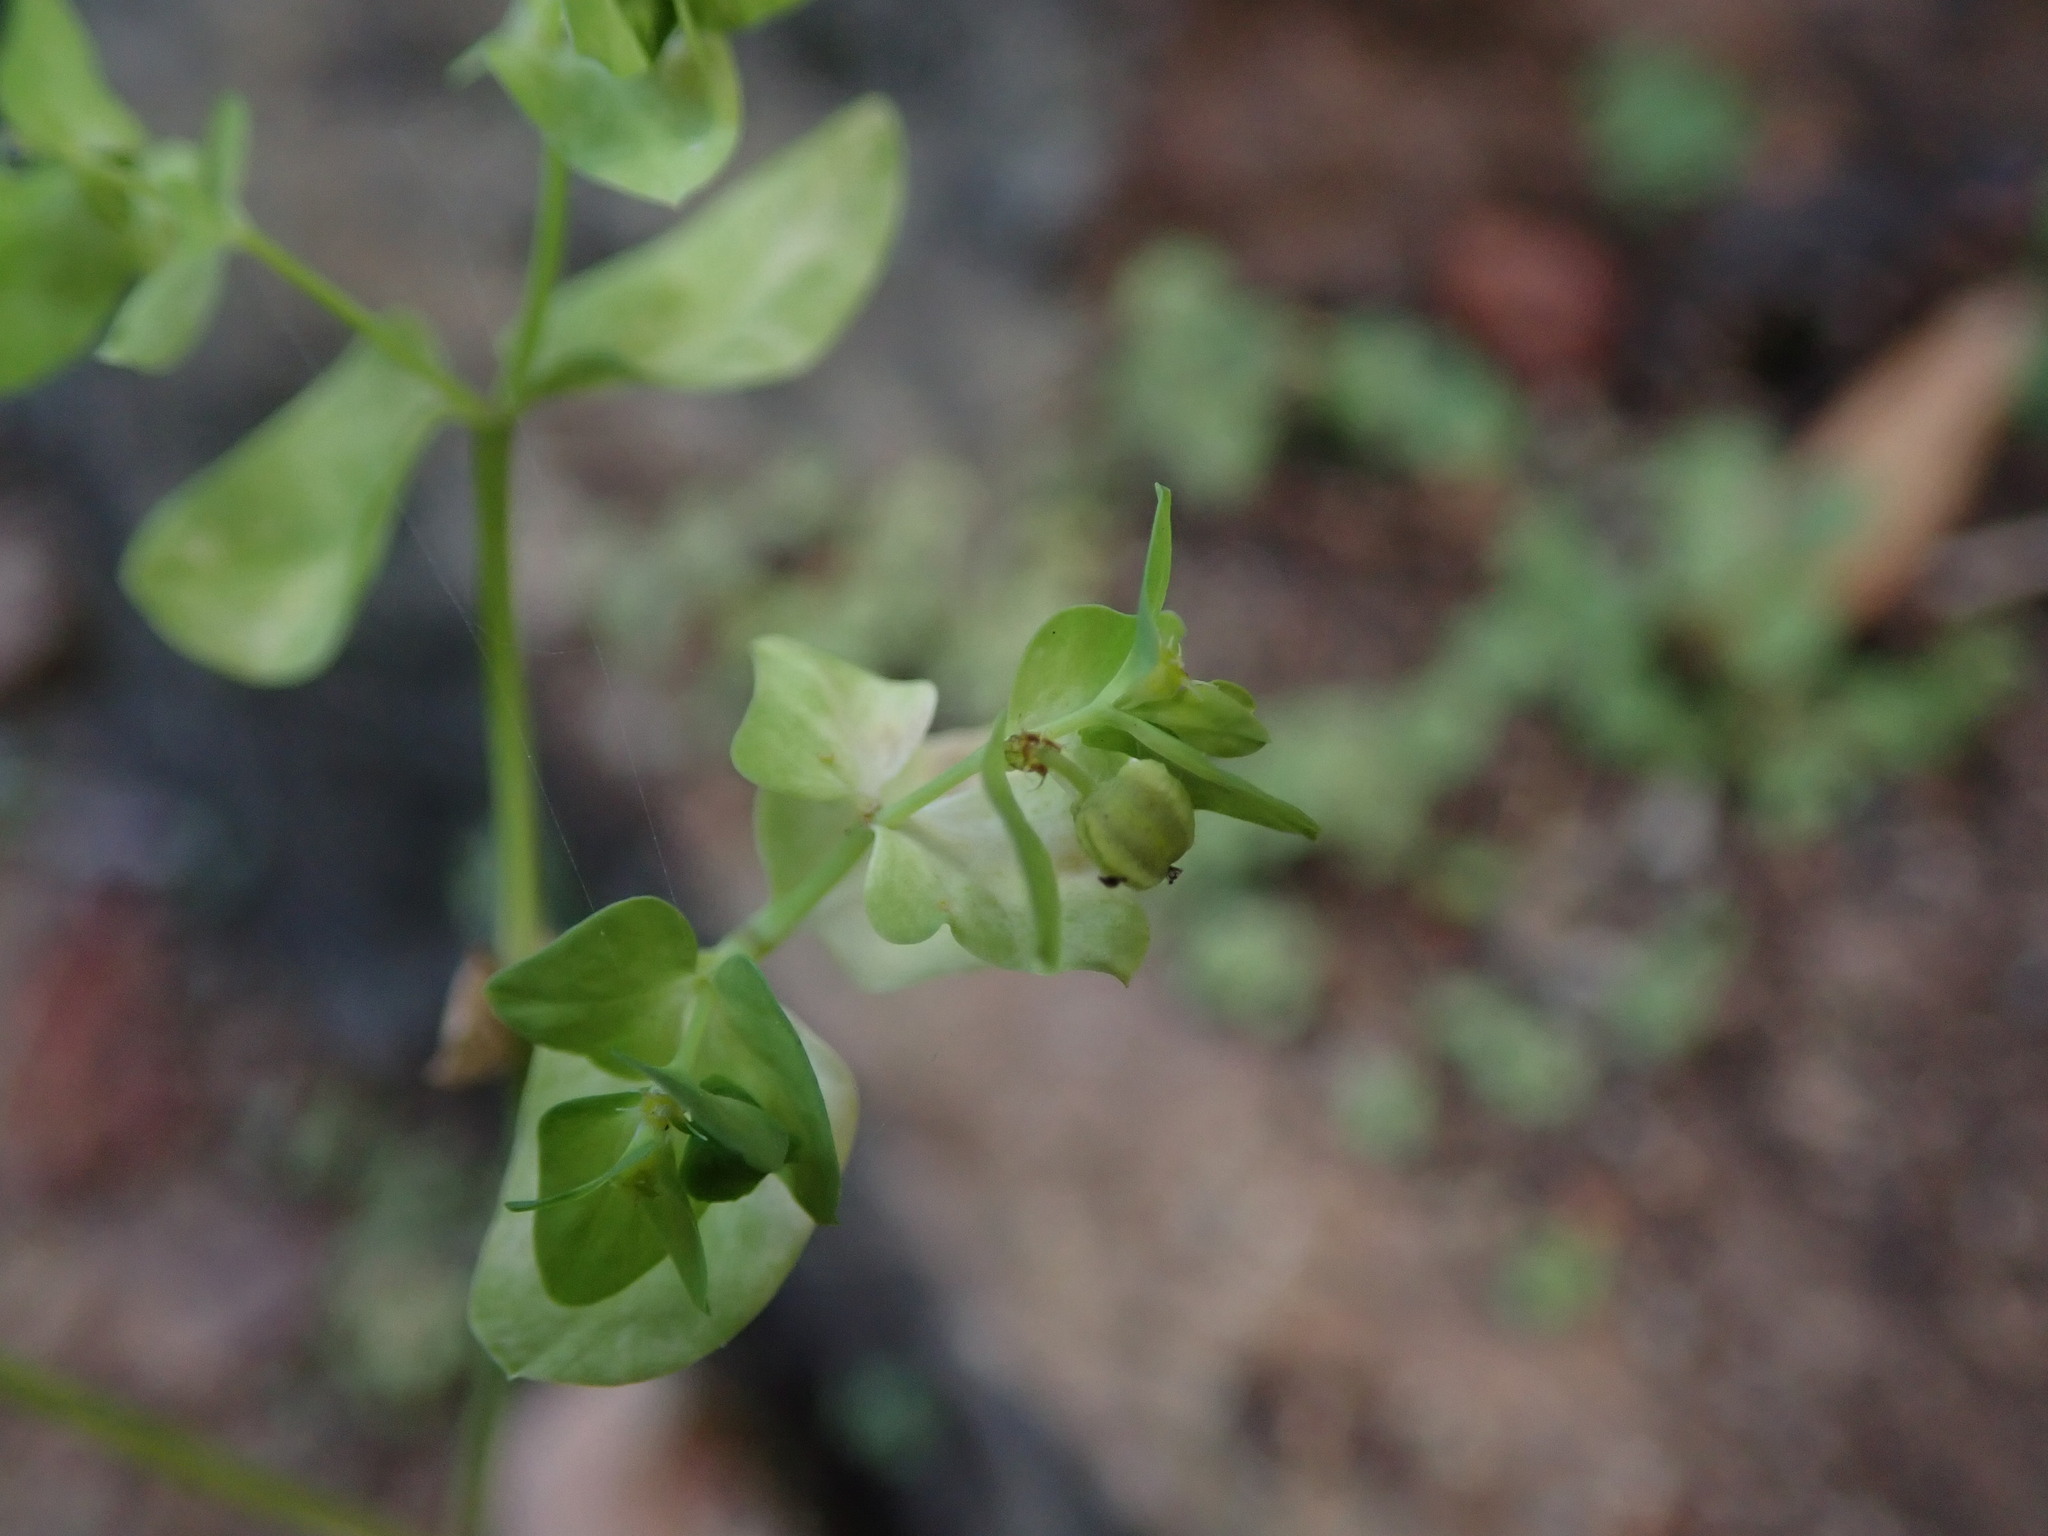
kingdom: Plantae
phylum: Tracheophyta
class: Magnoliopsida
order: Malpighiales
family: Euphorbiaceae
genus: Euphorbia
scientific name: Euphorbia peplus
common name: Petty spurge
